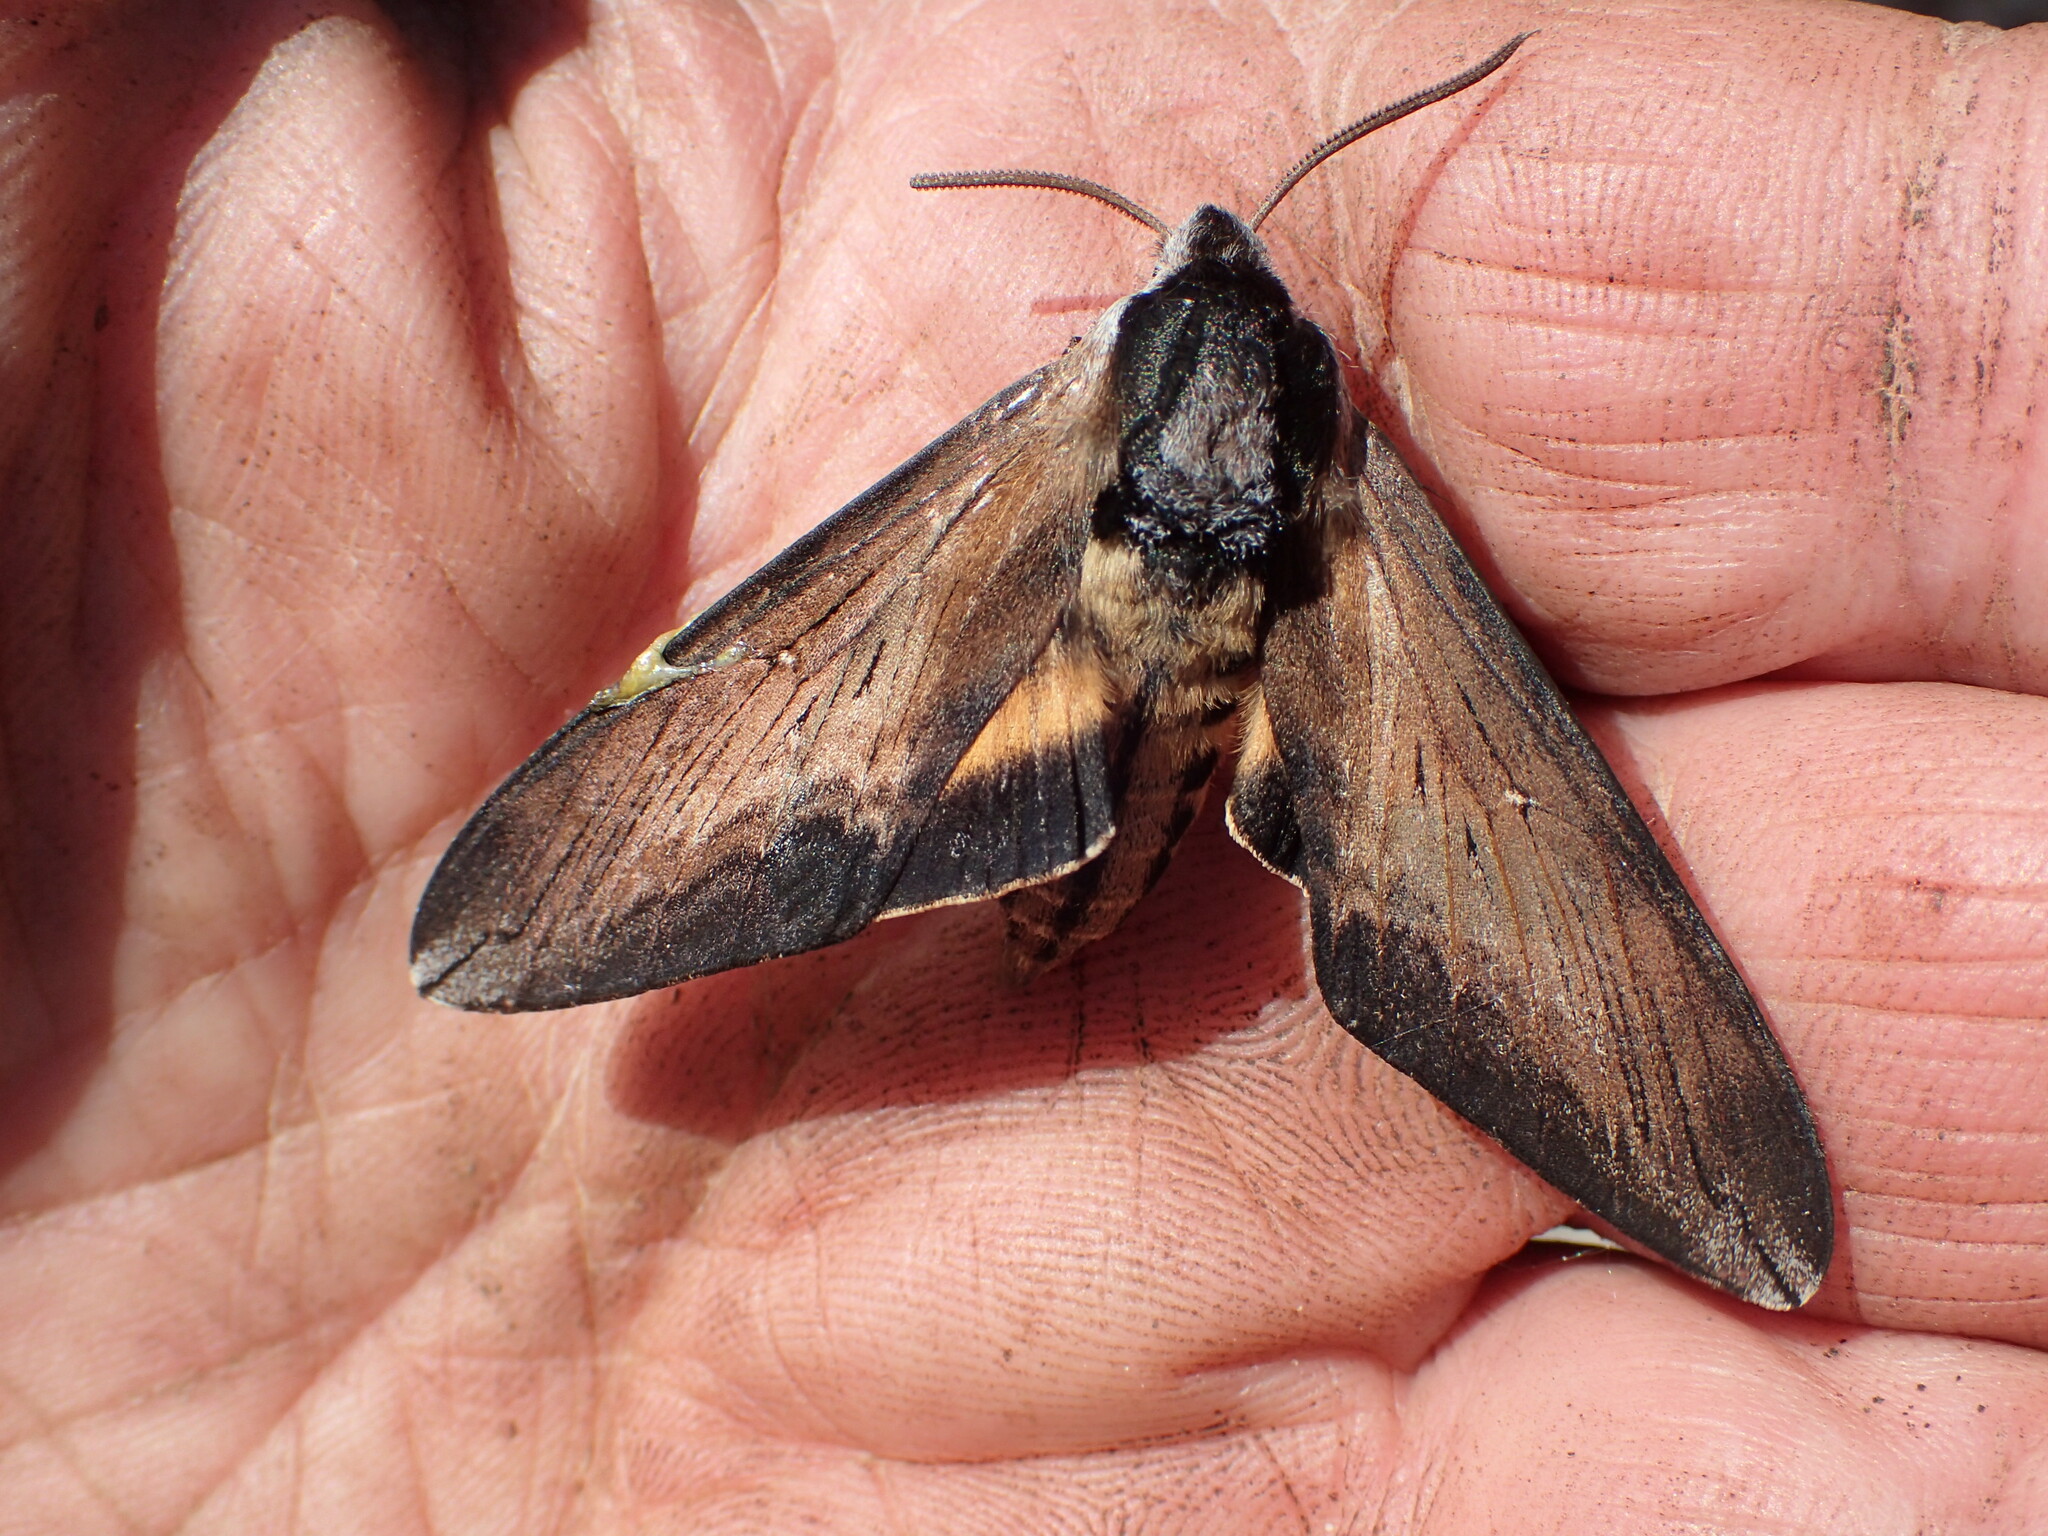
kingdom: Animalia
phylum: Arthropoda
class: Insecta
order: Lepidoptera
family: Sphingidae
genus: Sphinx
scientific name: Sphinx luscitiosa
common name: Clemen's sphinx
